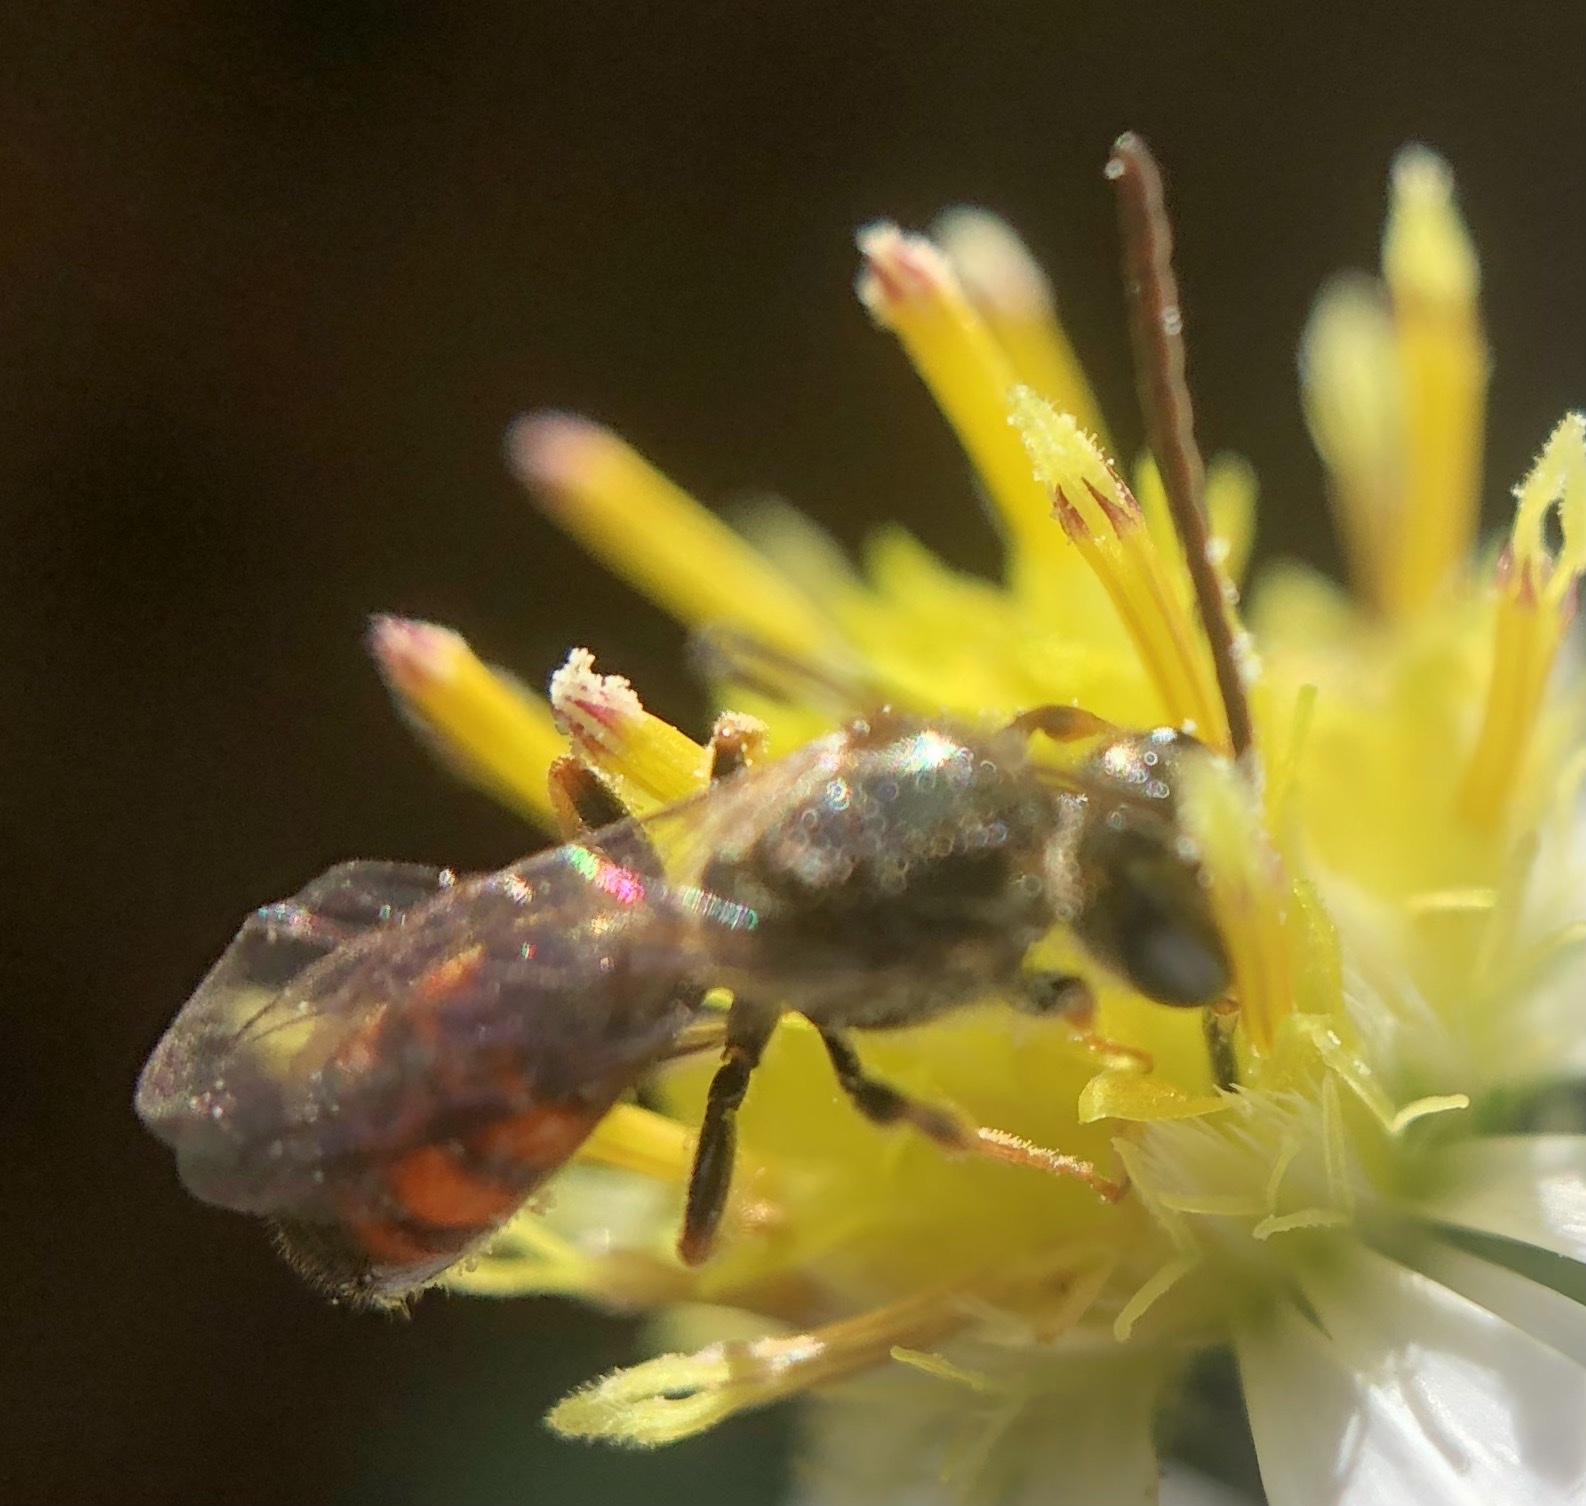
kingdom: Animalia
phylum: Arthropoda
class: Insecta
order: Hymenoptera
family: Halictidae
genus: Lasioglossum
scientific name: Lasioglossum zephyrum
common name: Zephyr sweat bee
